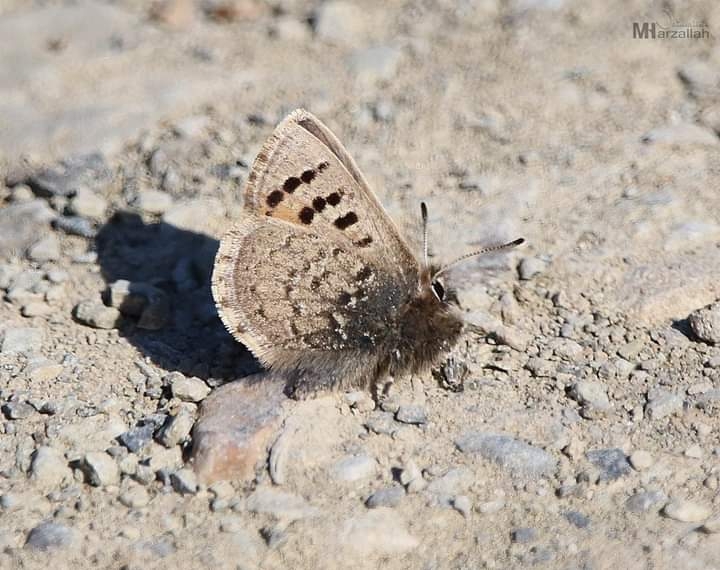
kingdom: Animalia
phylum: Arthropoda
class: Insecta
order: Lepidoptera
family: Lycaenidae
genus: Tomares
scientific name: Tomares mauritanicus
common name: Moroccan hairstreak
